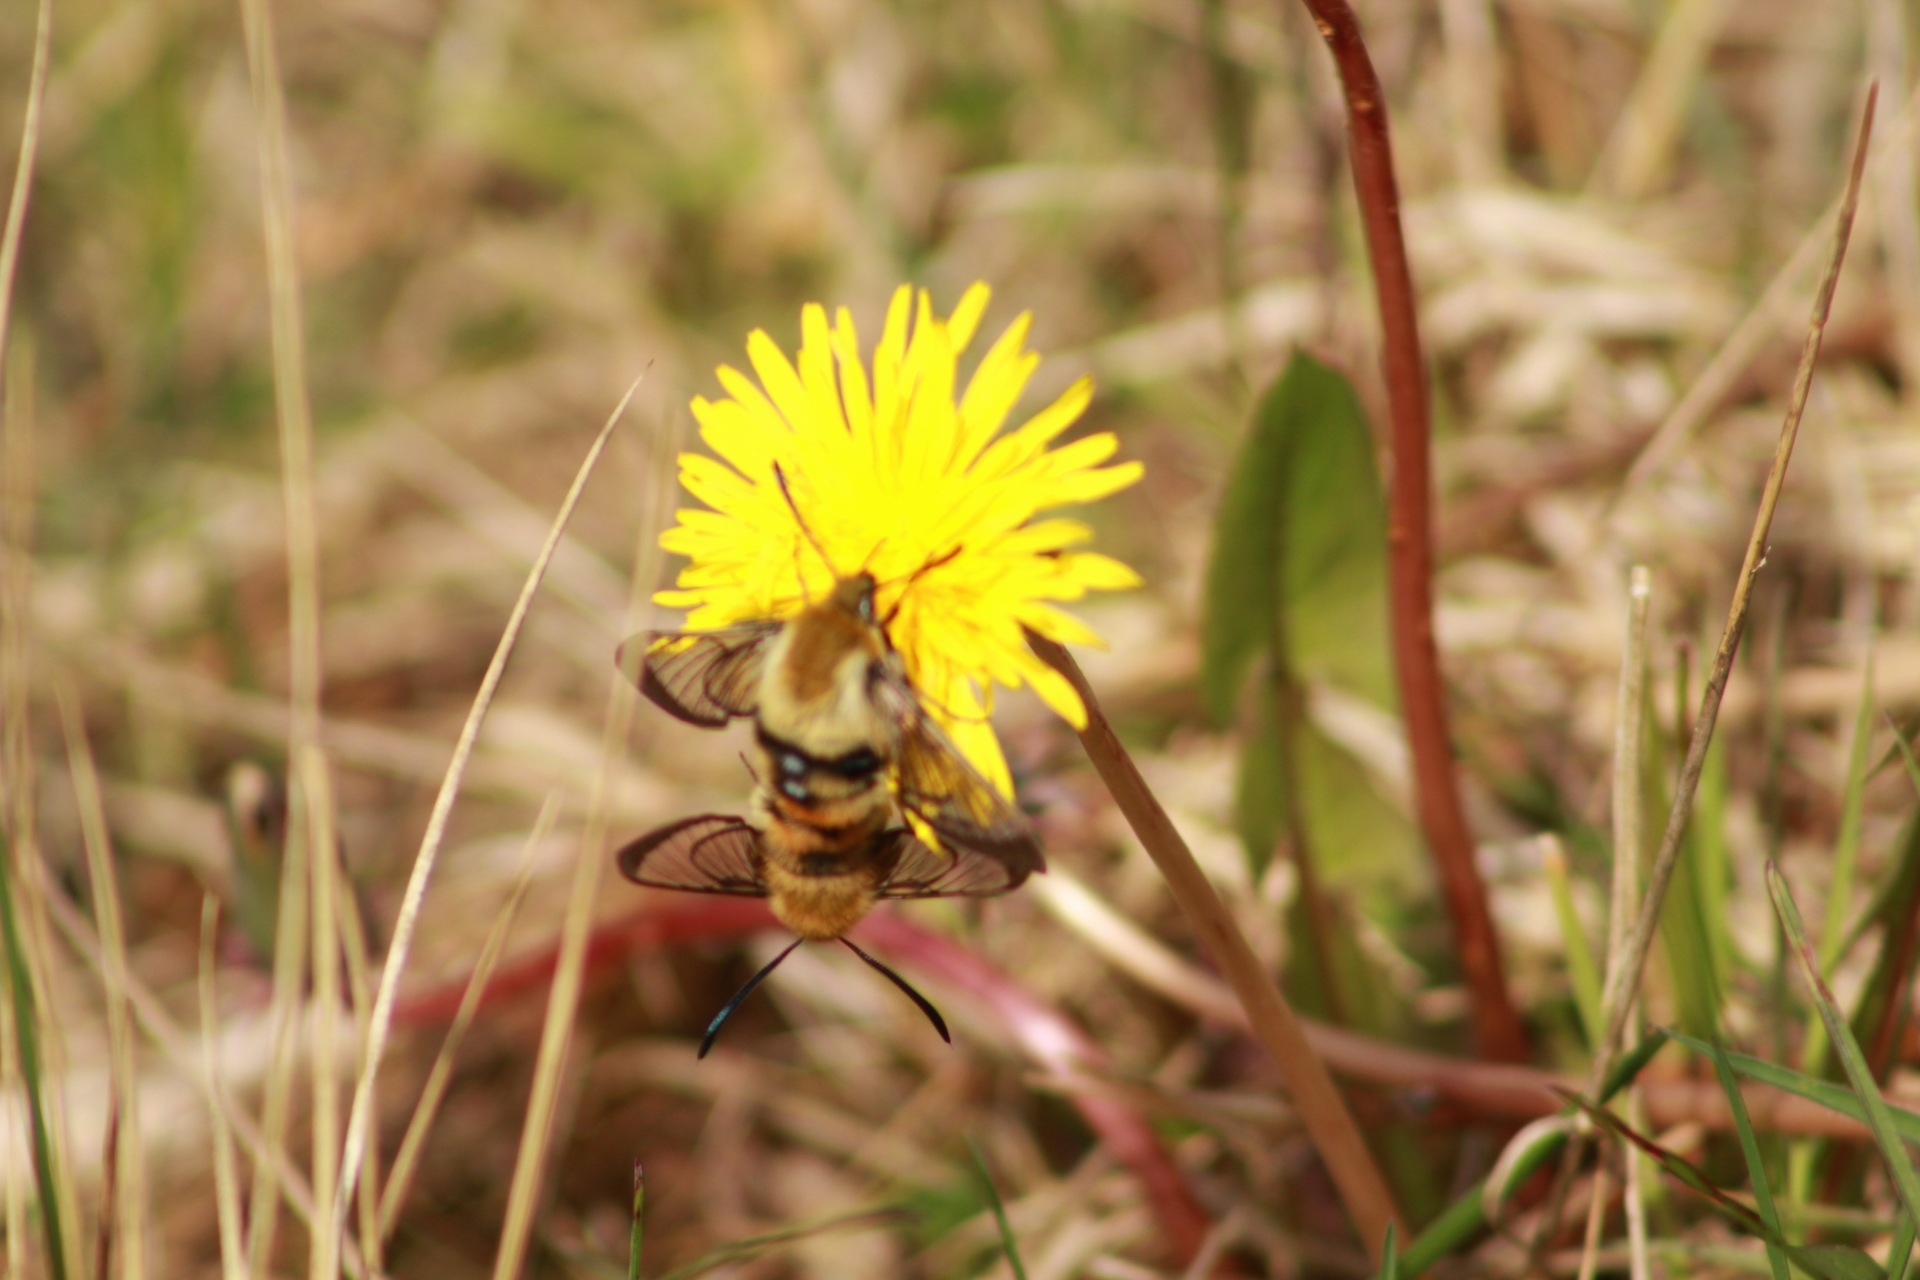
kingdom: Animalia
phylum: Arthropoda
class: Insecta
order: Lepidoptera
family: Sphingidae
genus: Hemaris
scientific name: Hemaris tityus
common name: Narrow-bordered bee hawk-moth
